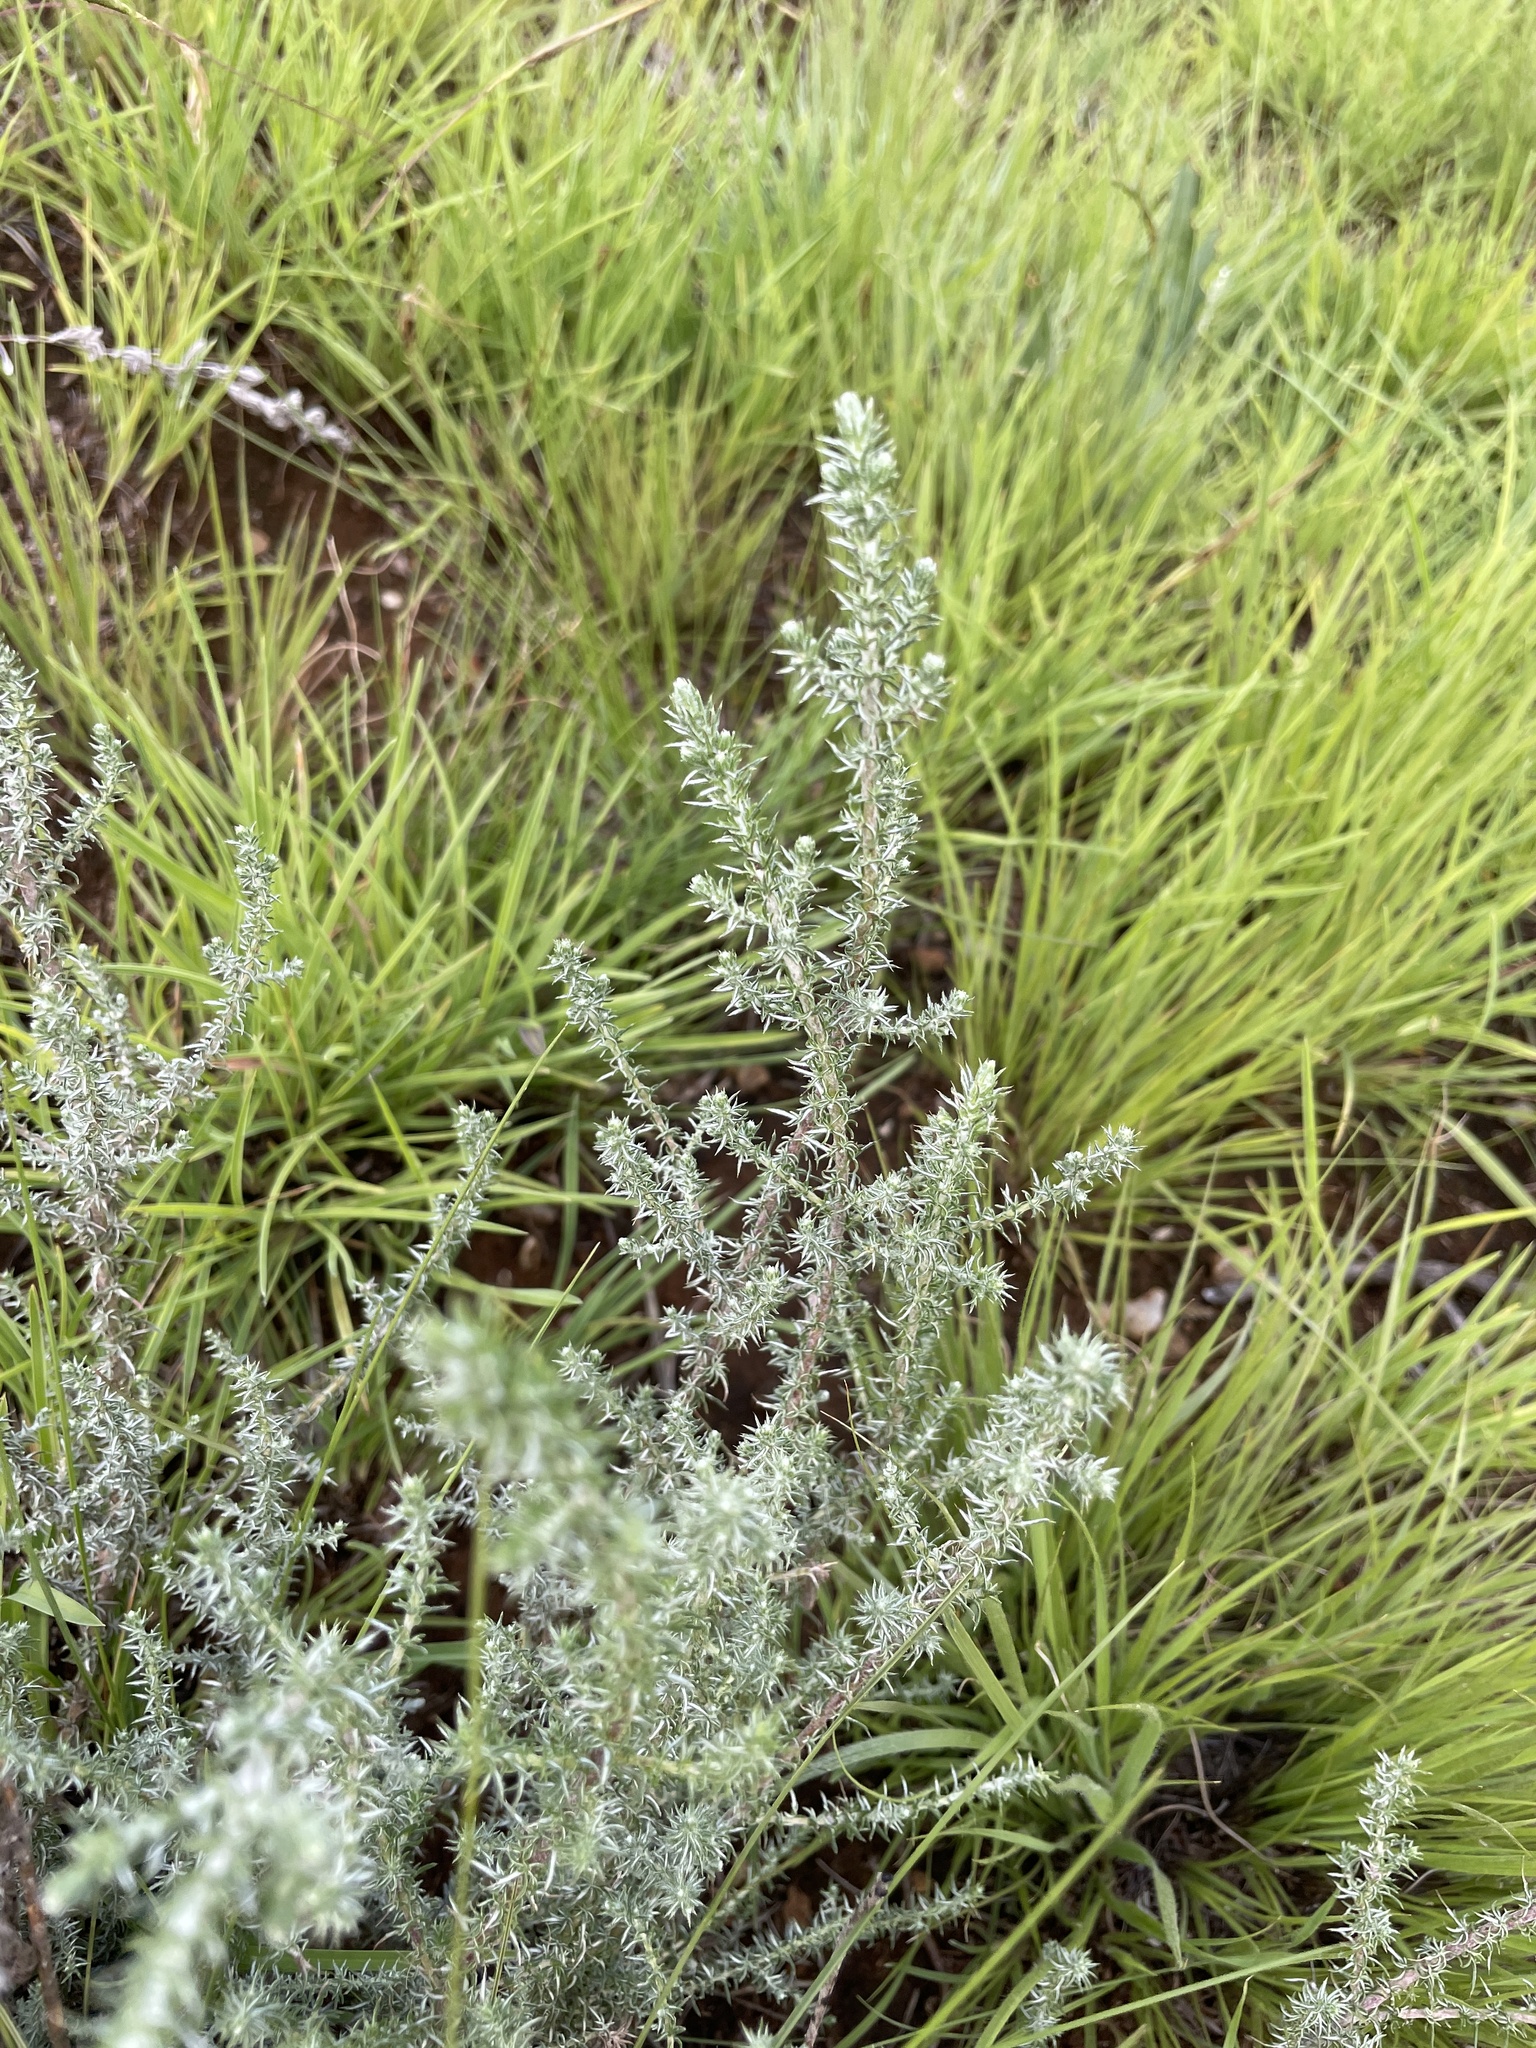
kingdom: Plantae
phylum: Tracheophyta
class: Magnoliopsida
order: Asterales
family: Asteraceae
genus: Seriphium
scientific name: Seriphium
